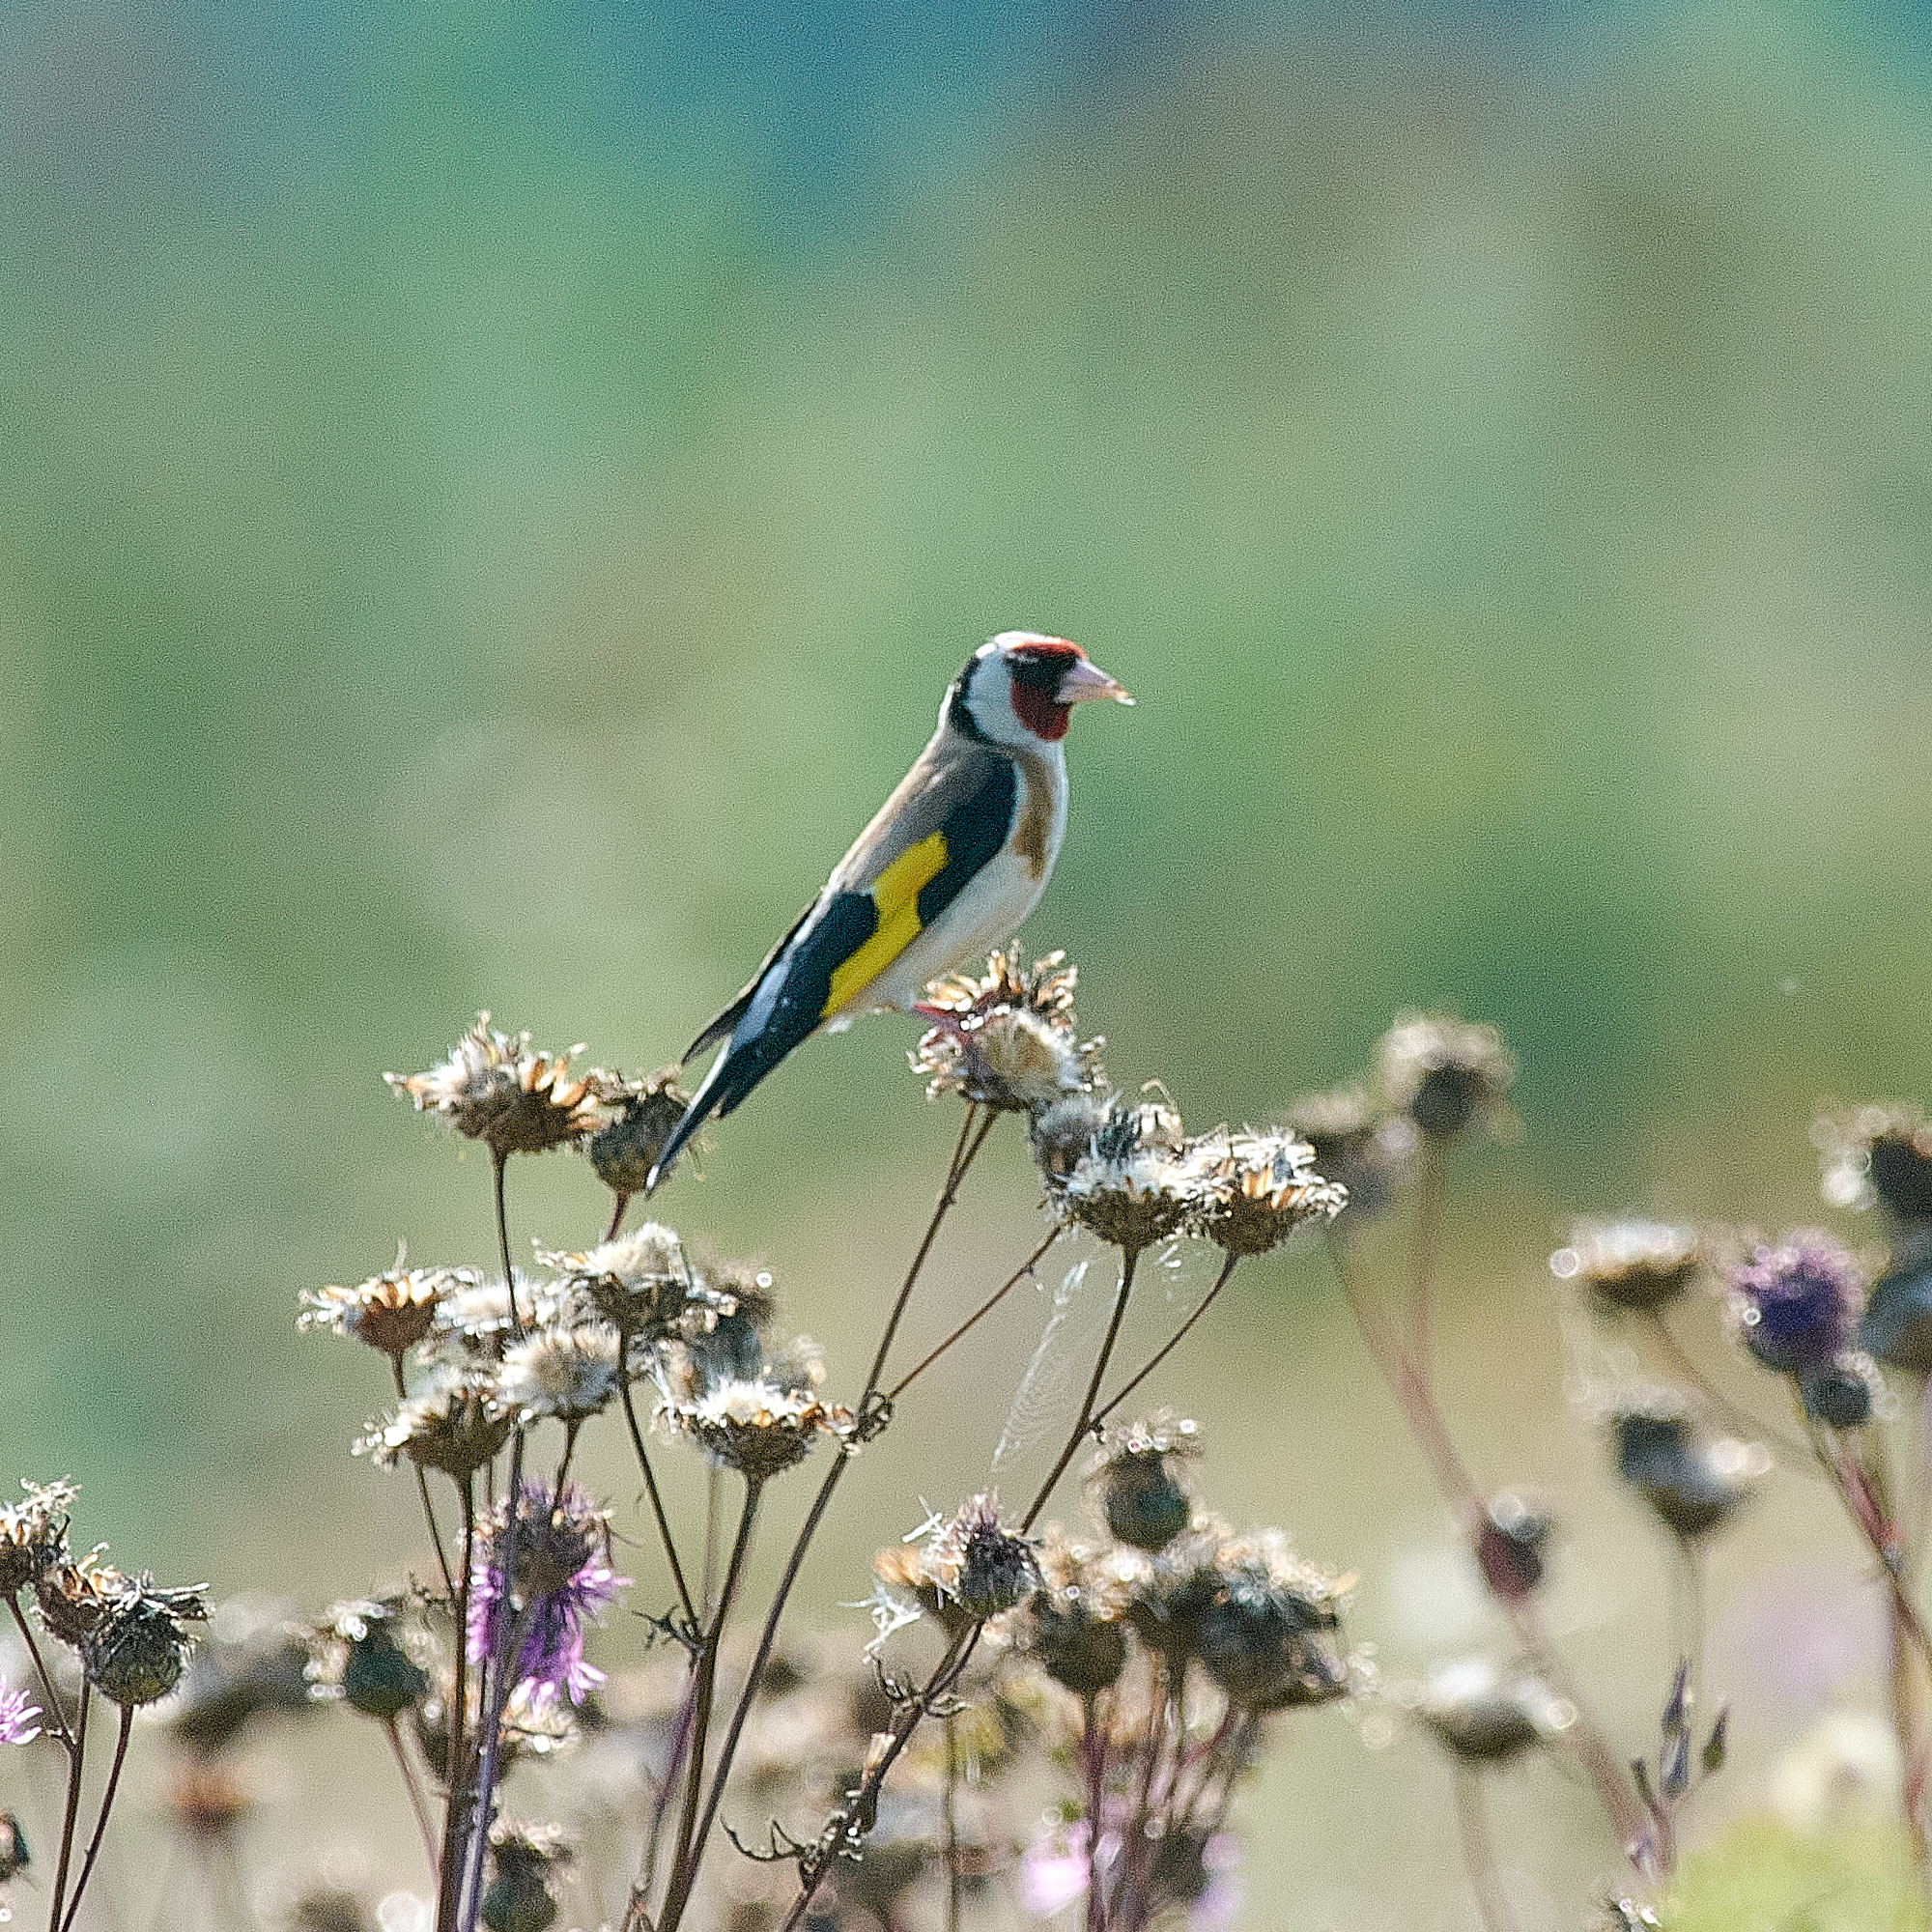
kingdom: Animalia
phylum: Chordata
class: Aves
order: Passeriformes
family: Fringillidae
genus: Carduelis
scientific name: Carduelis carduelis
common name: European goldfinch
